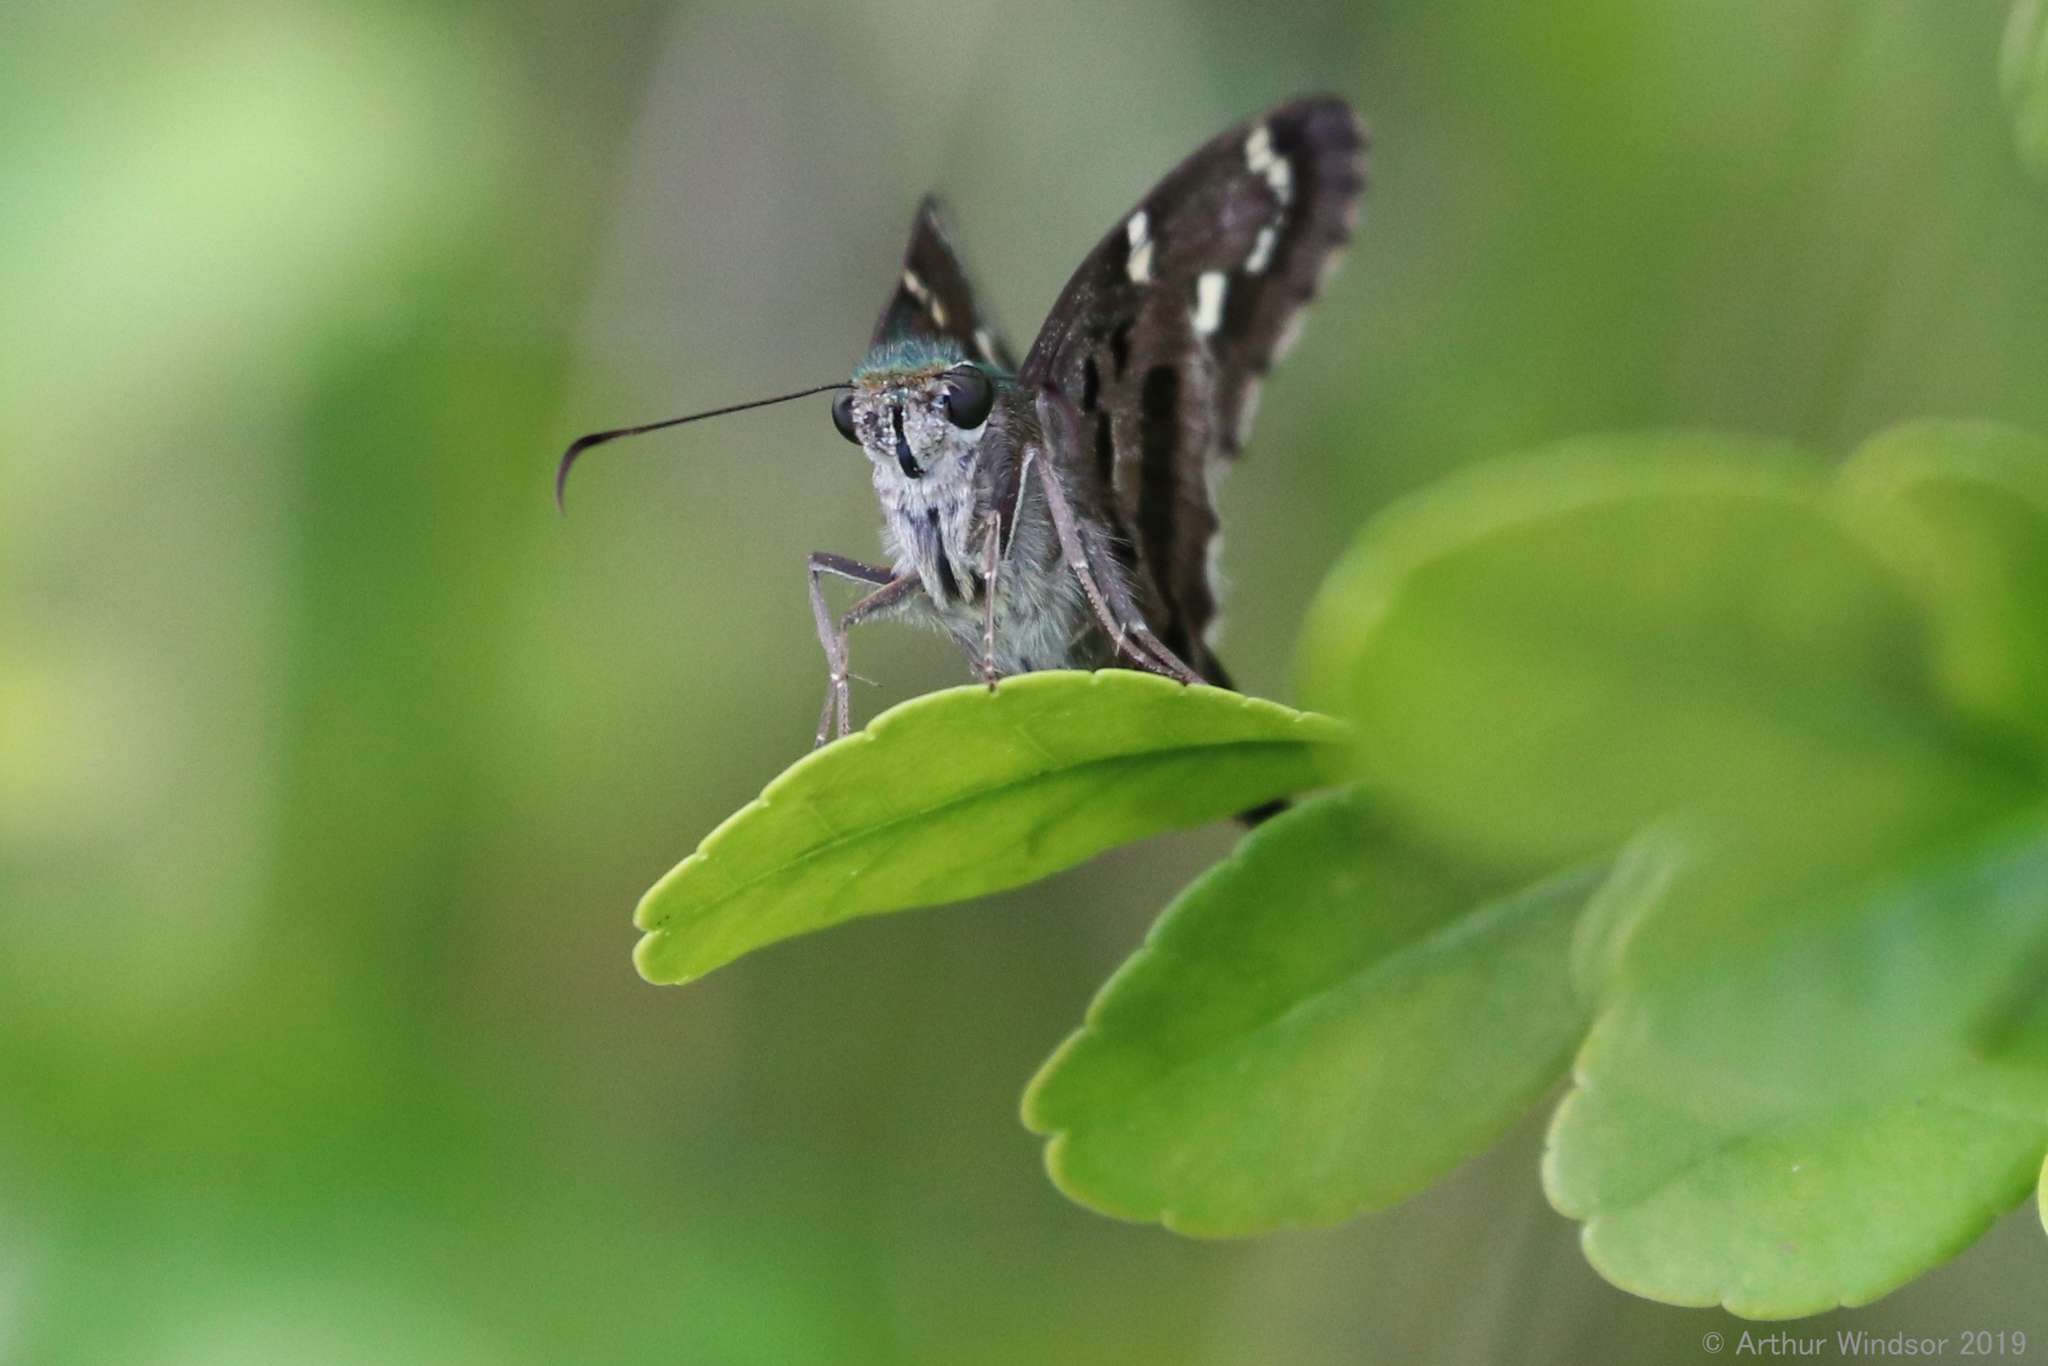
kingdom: Animalia
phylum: Arthropoda
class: Insecta
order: Lepidoptera
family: Hesperiidae
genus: Urbanus
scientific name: Urbanus proteus
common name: Long-tailed skipper
